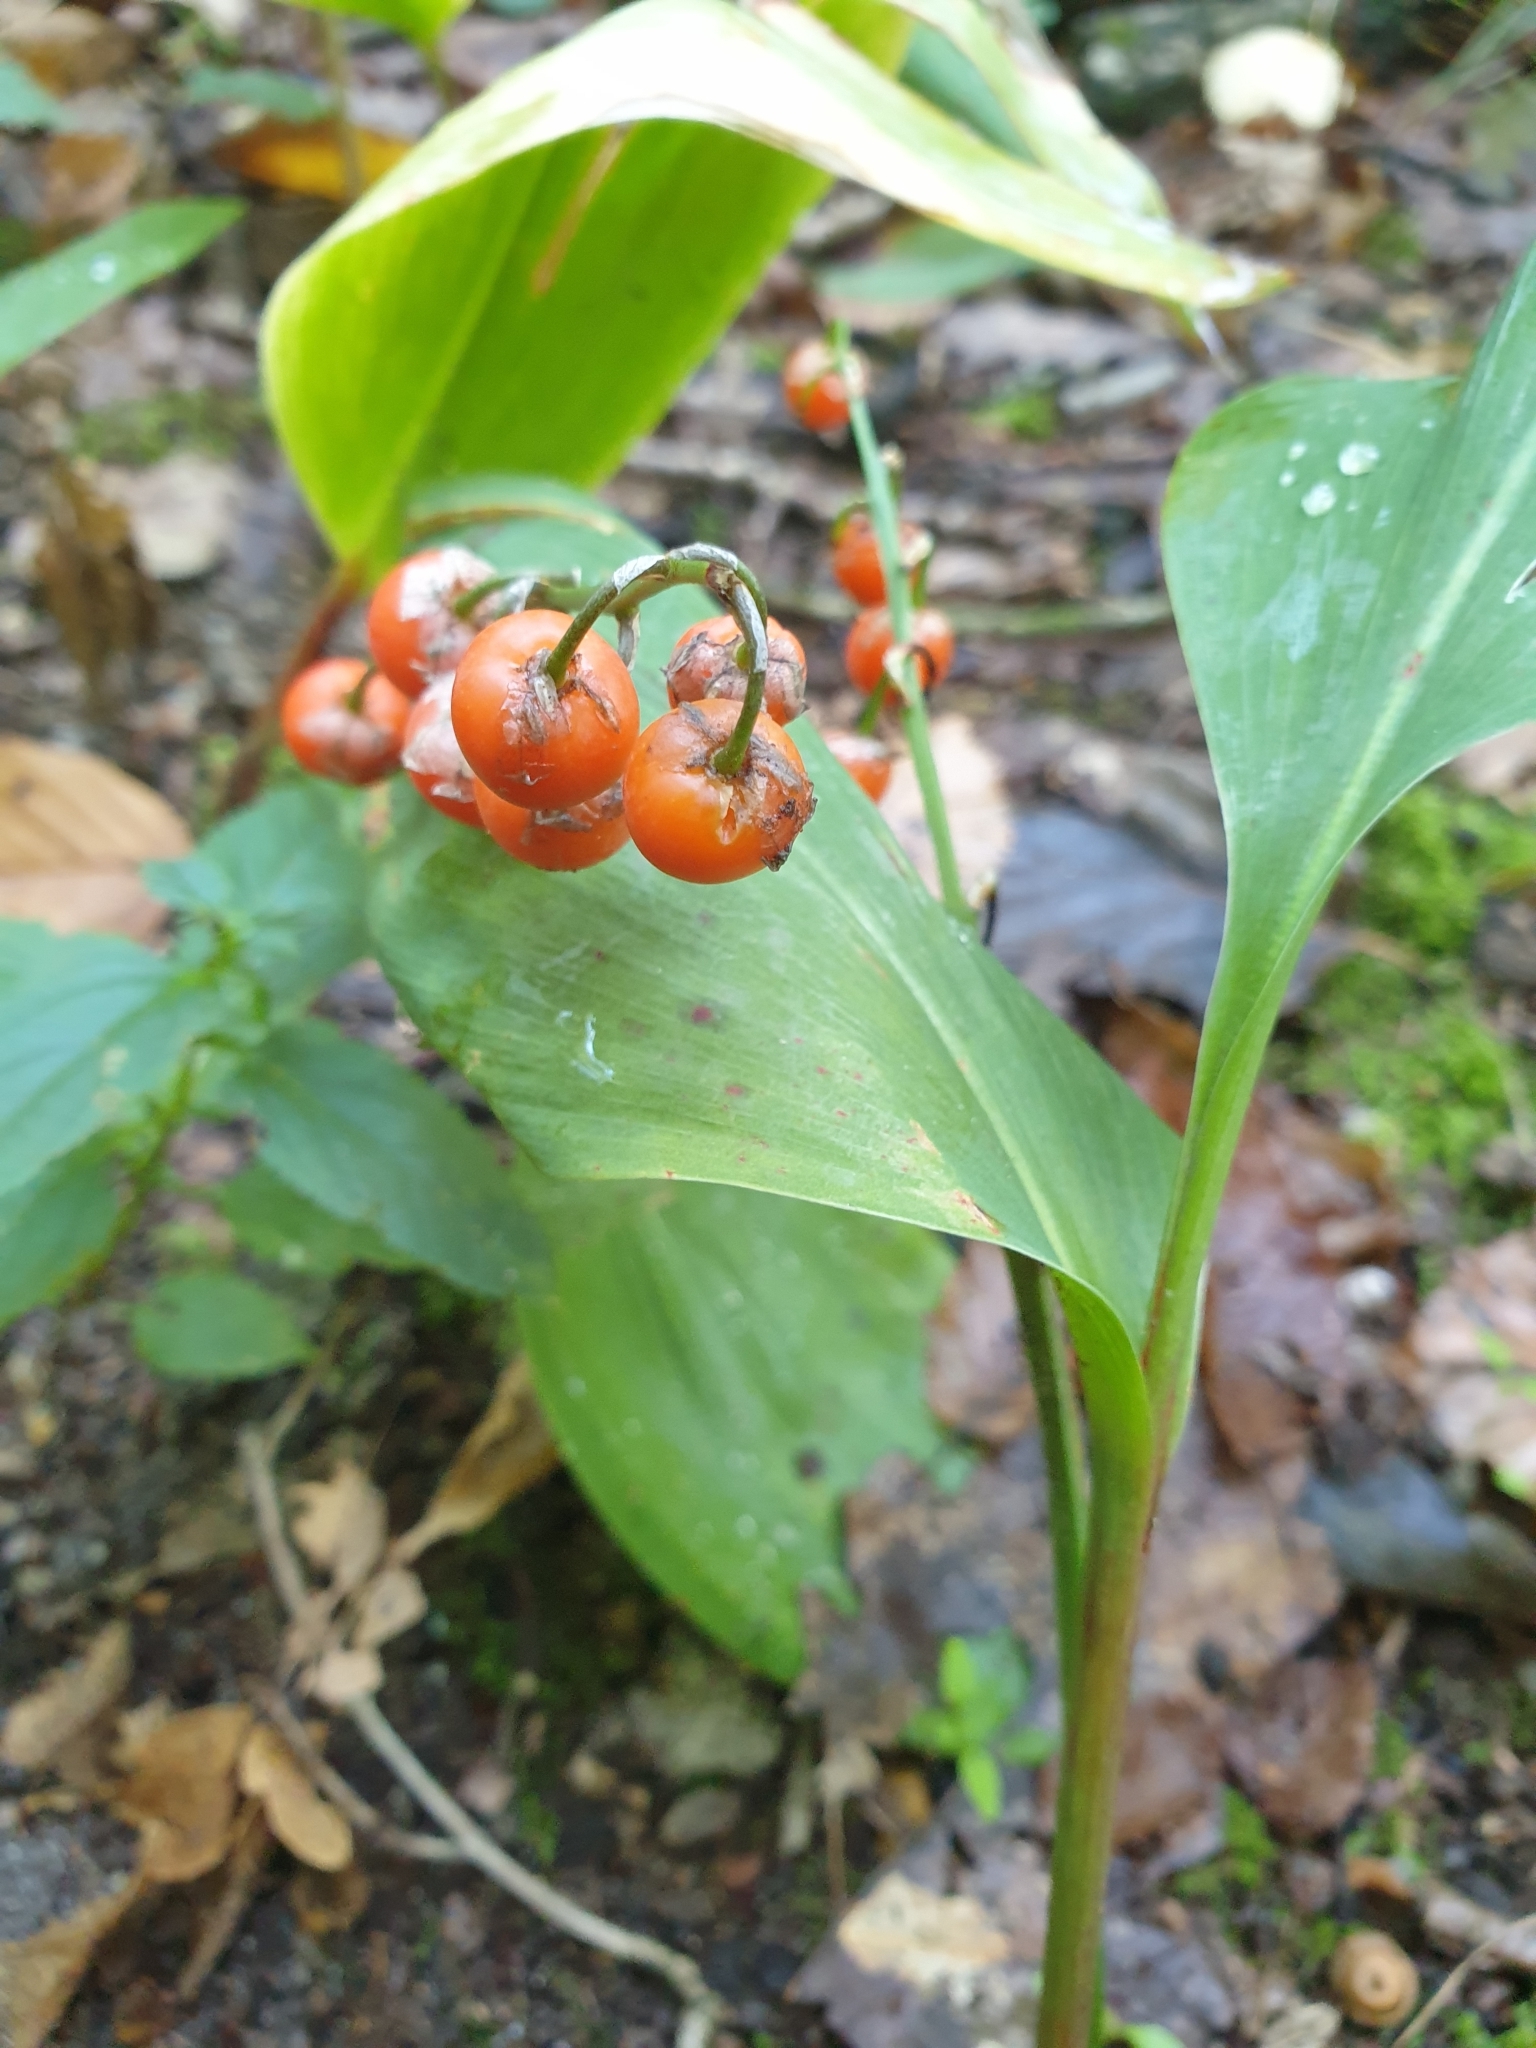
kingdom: Plantae
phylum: Tracheophyta
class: Liliopsida
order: Asparagales
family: Asparagaceae
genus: Convallaria
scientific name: Convallaria majalis
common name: Lily-of-the-valley
